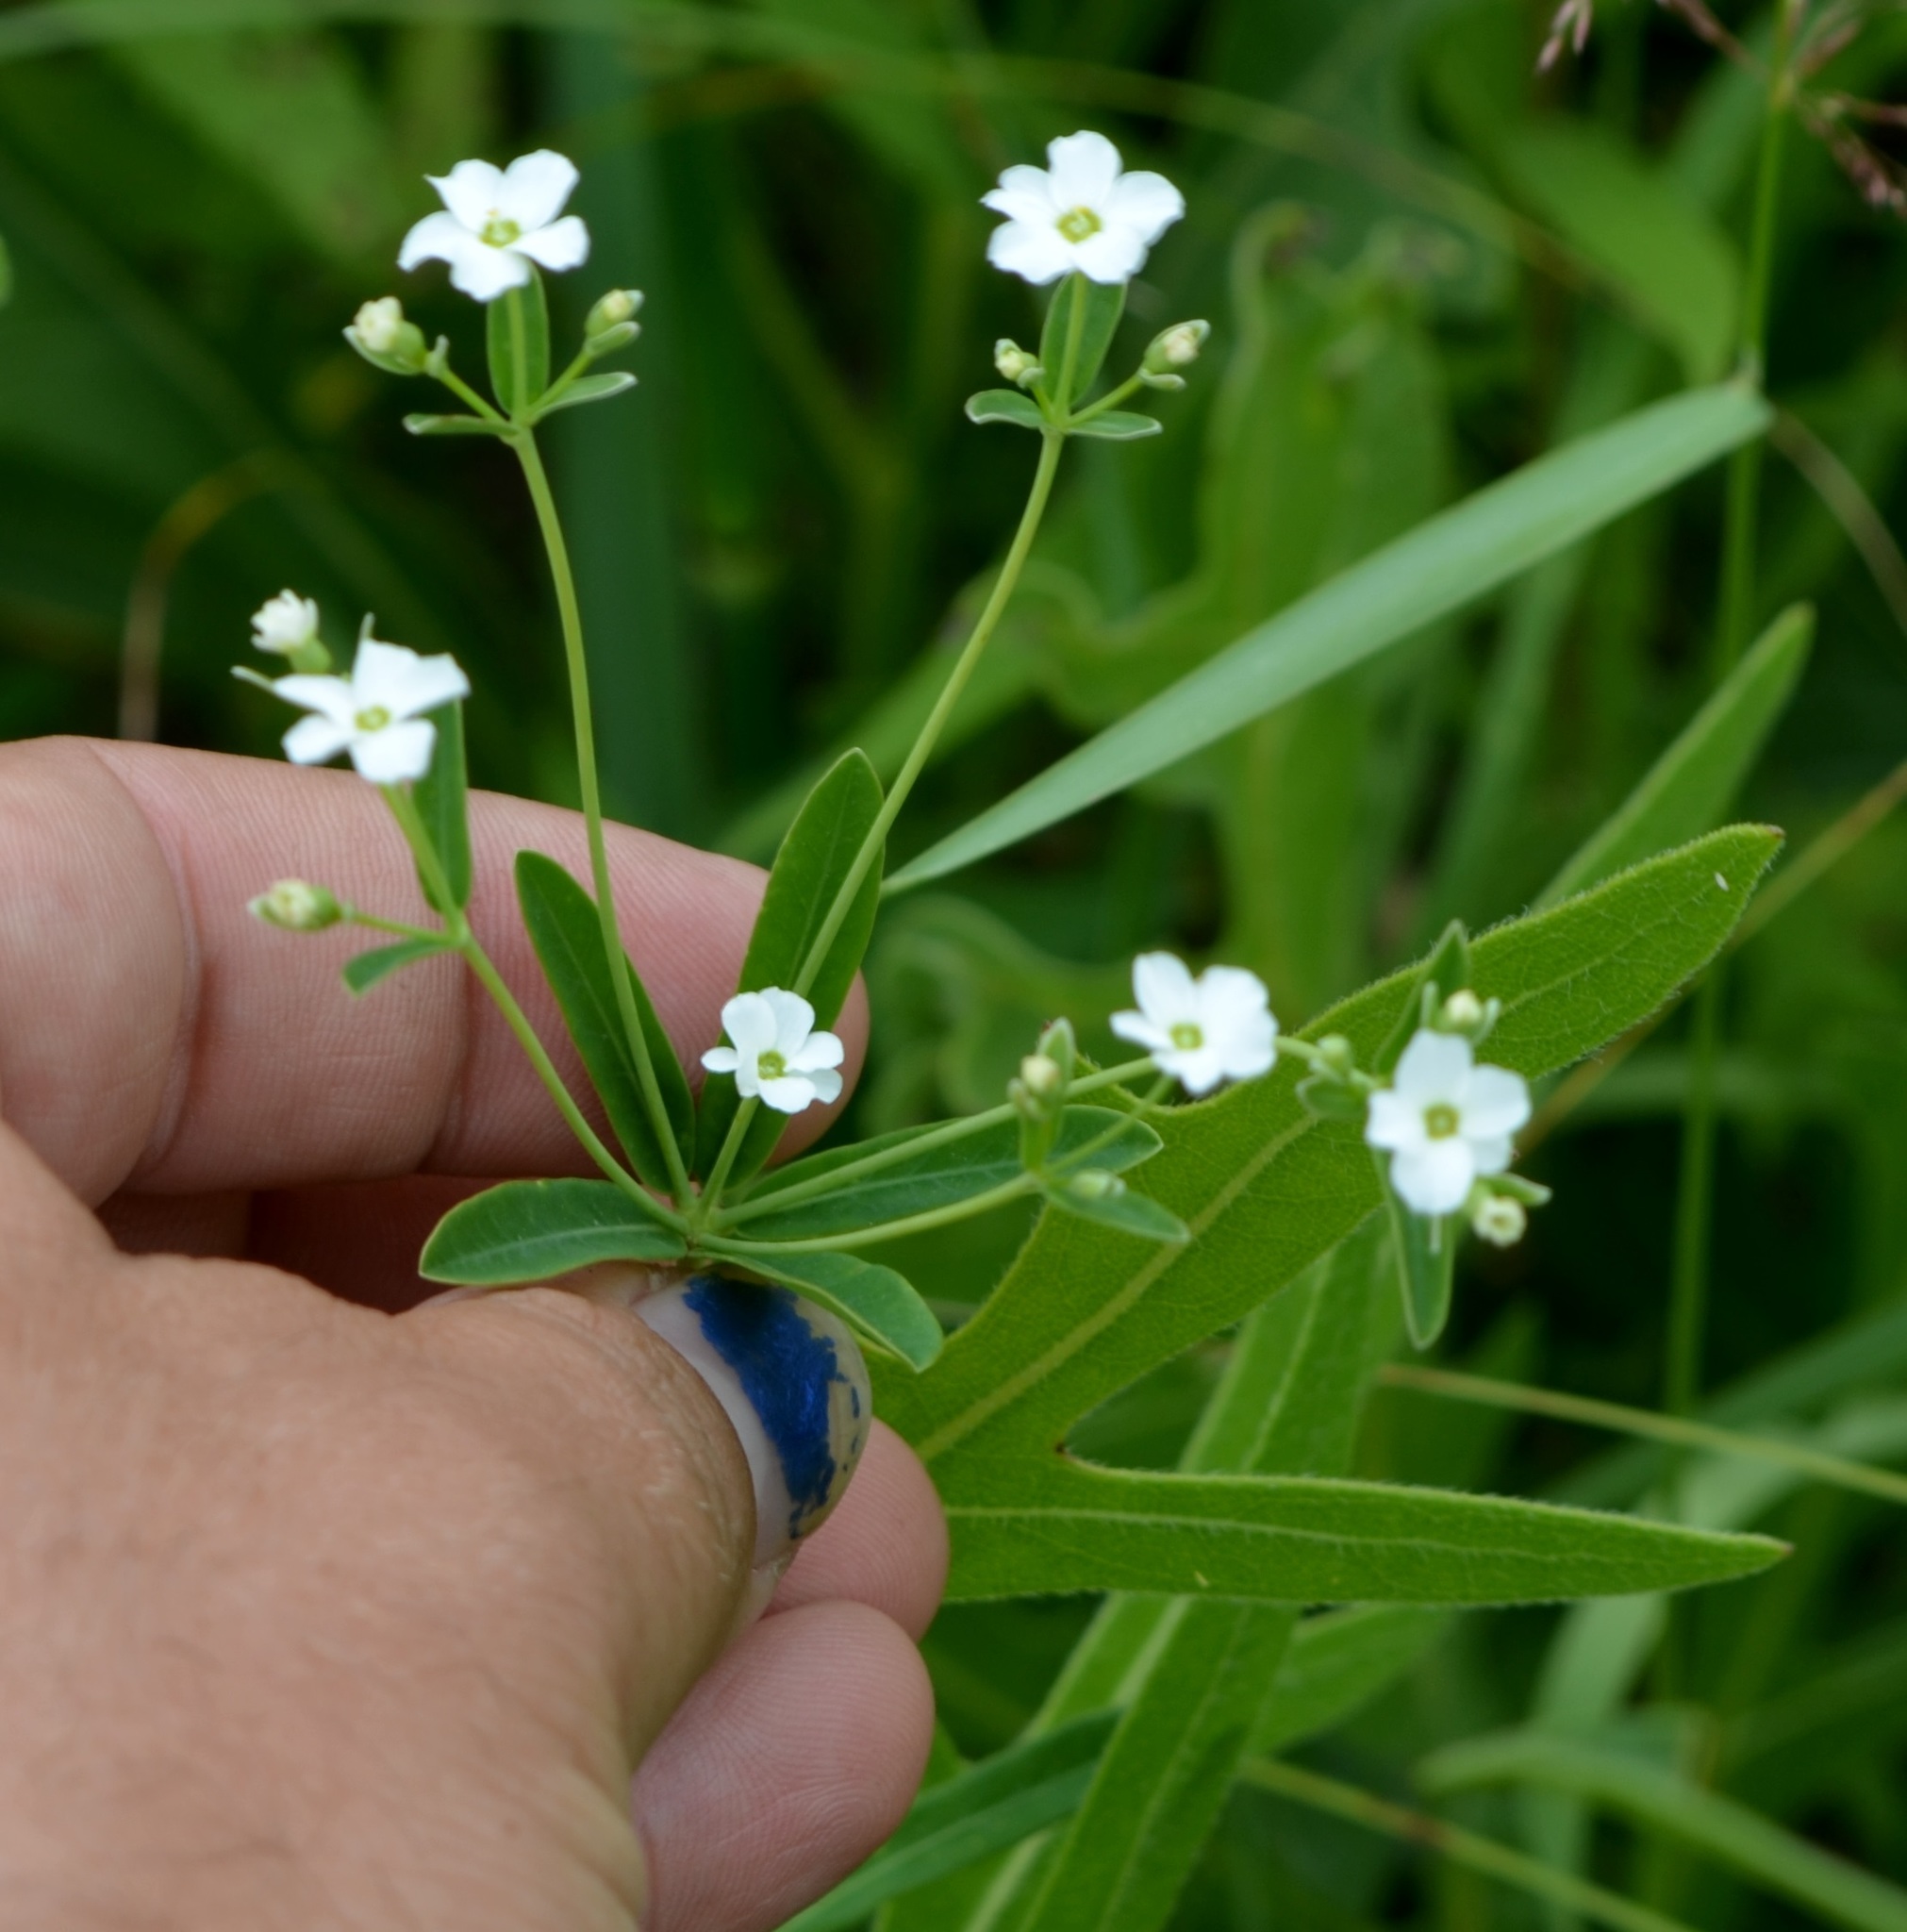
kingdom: Plantae
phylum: Tracheophyta
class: Magnoliopsida
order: Malpighiales
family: Euphorbiaceae
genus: Euphorbia
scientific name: Euphorbia corollata
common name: Flowering spurge
